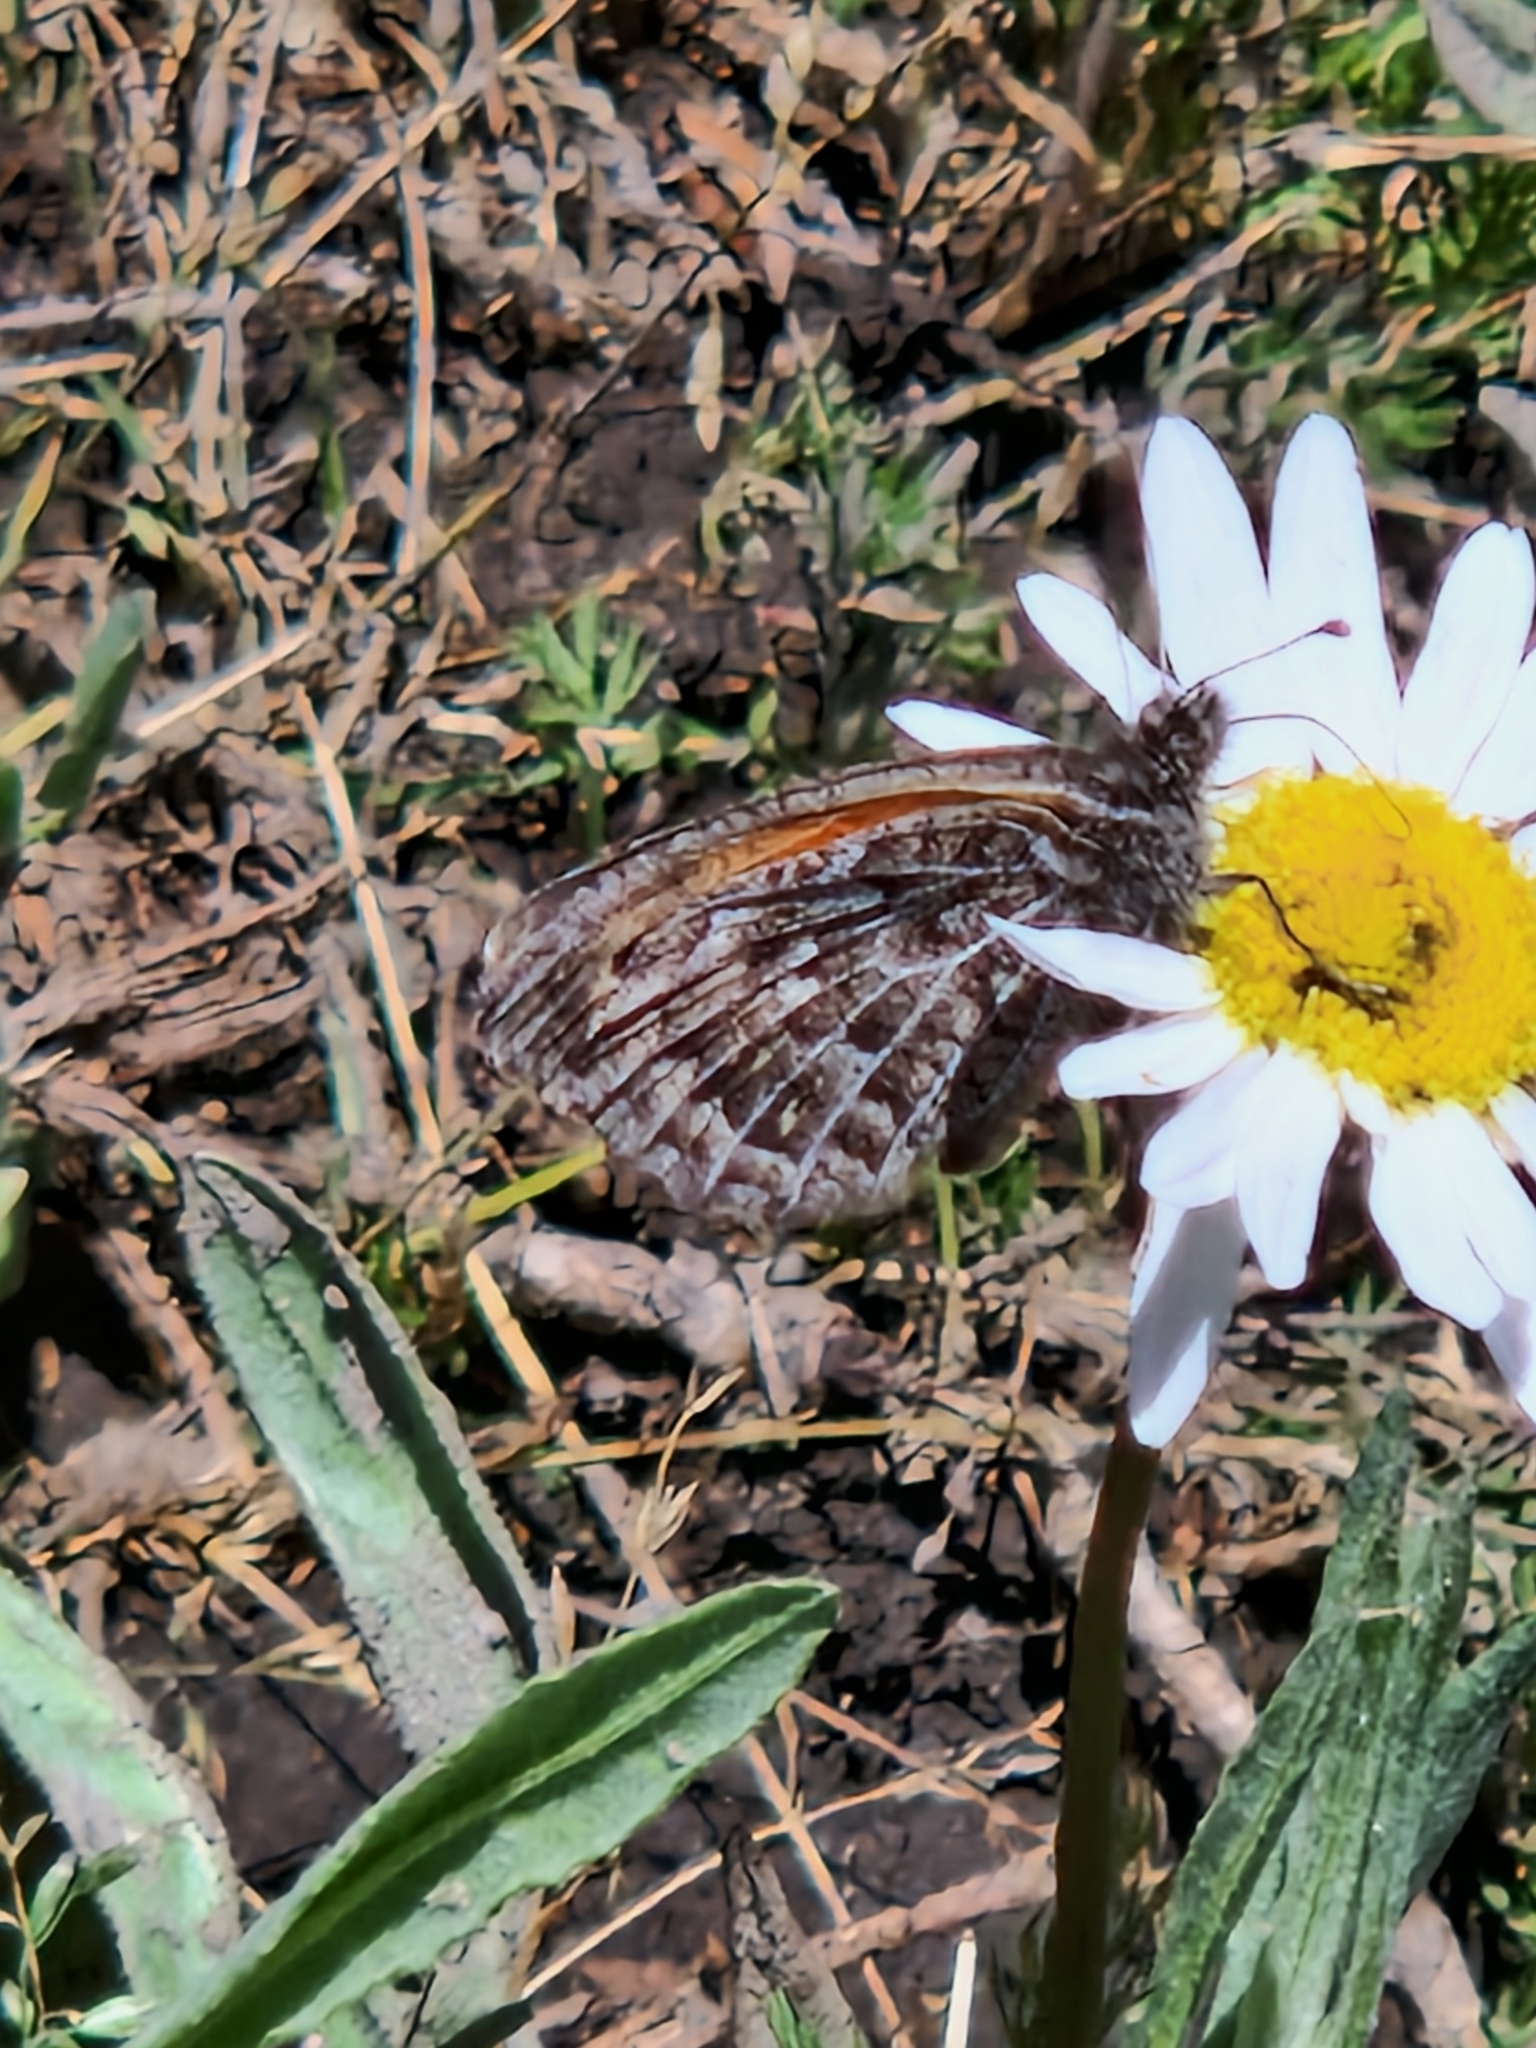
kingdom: Animalia
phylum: Arthropoda
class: Insecta
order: Lepidoptera
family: Nymphalidae
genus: Argyrophorus
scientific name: Argyrophorus
